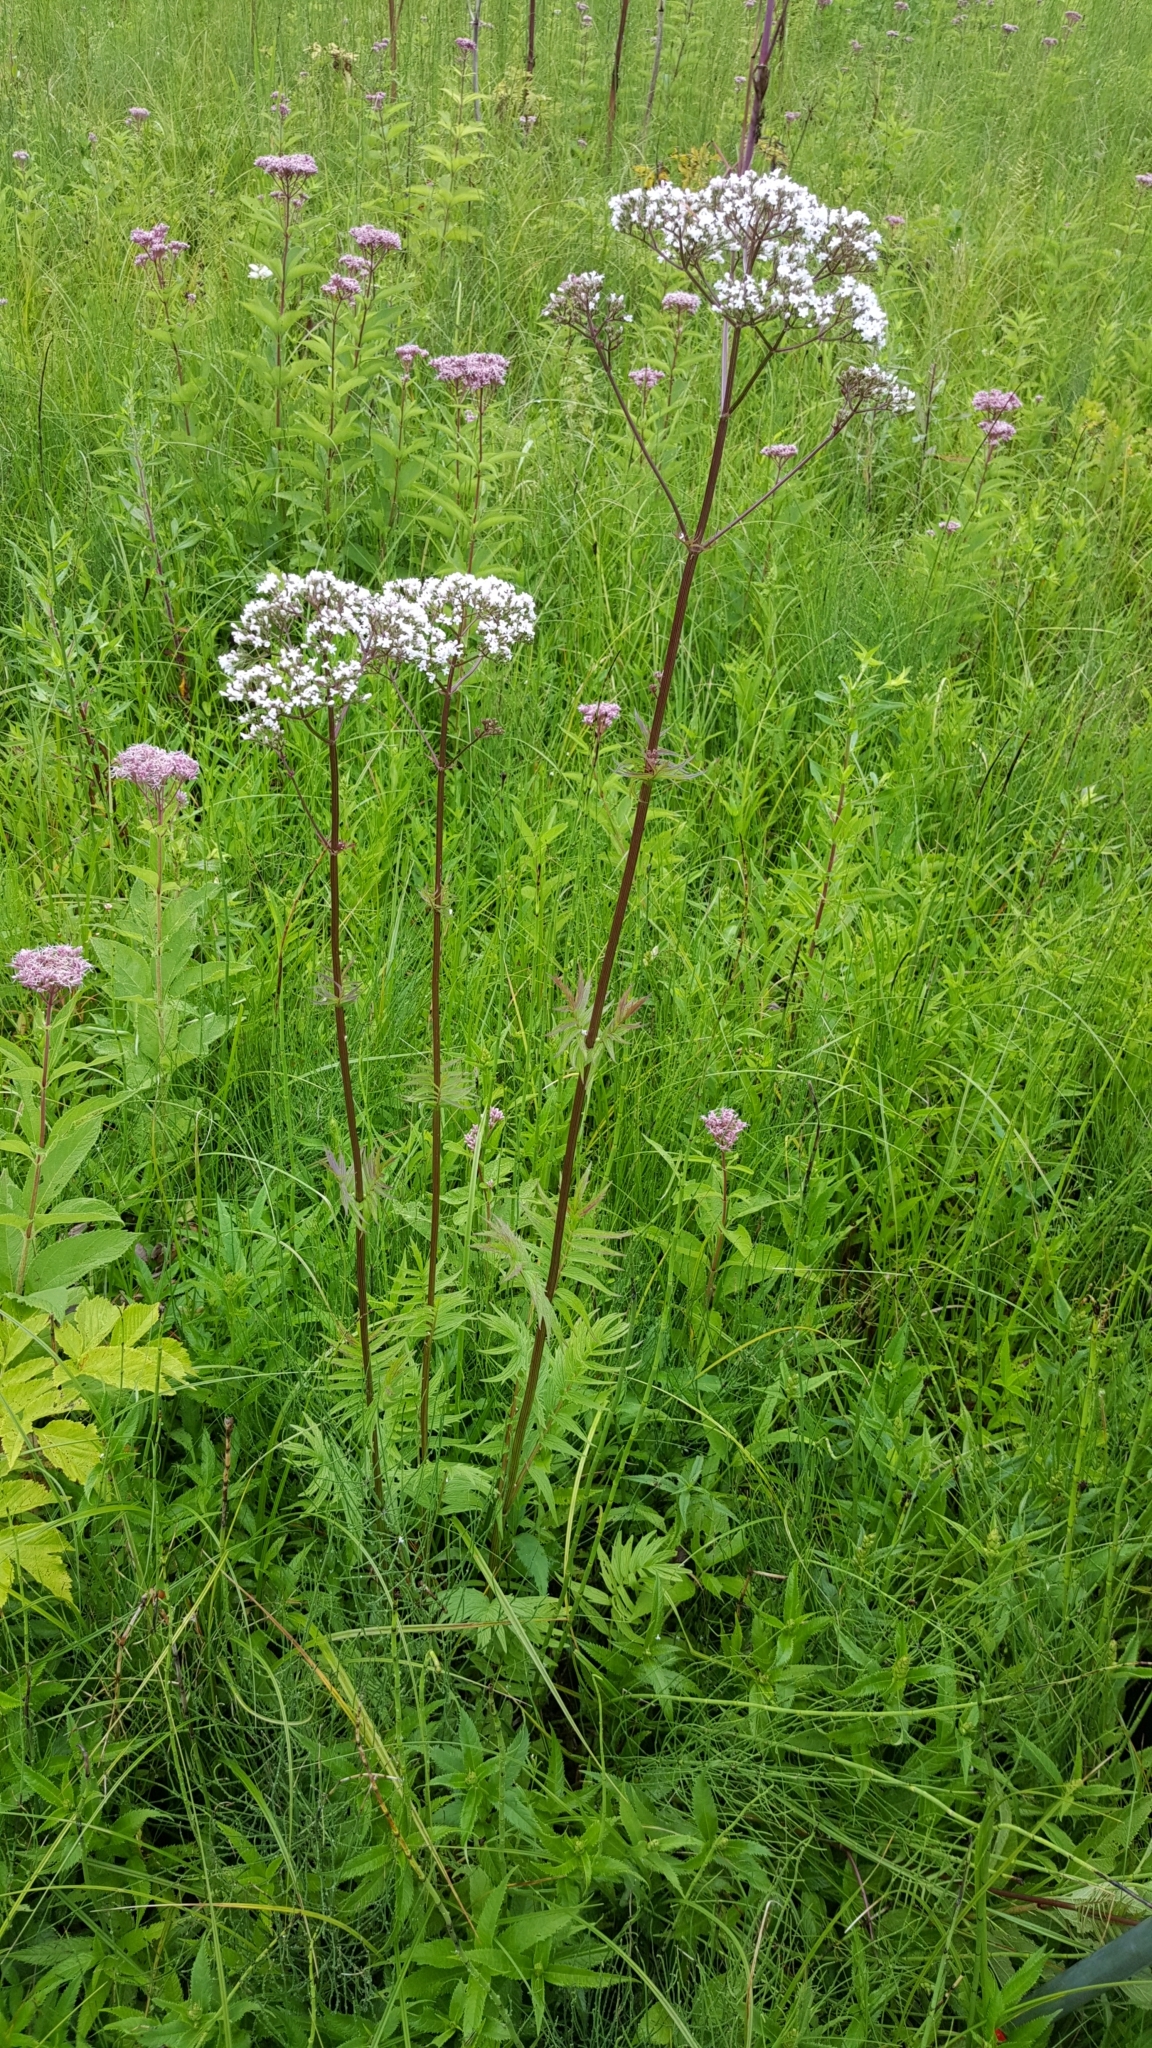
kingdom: Plantae
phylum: Tracheophyta
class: Magnoliopsida
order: Dipsacales
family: Caprifoliaceae
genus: Valeriana
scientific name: Valeriana officinalis
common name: Common valerian
